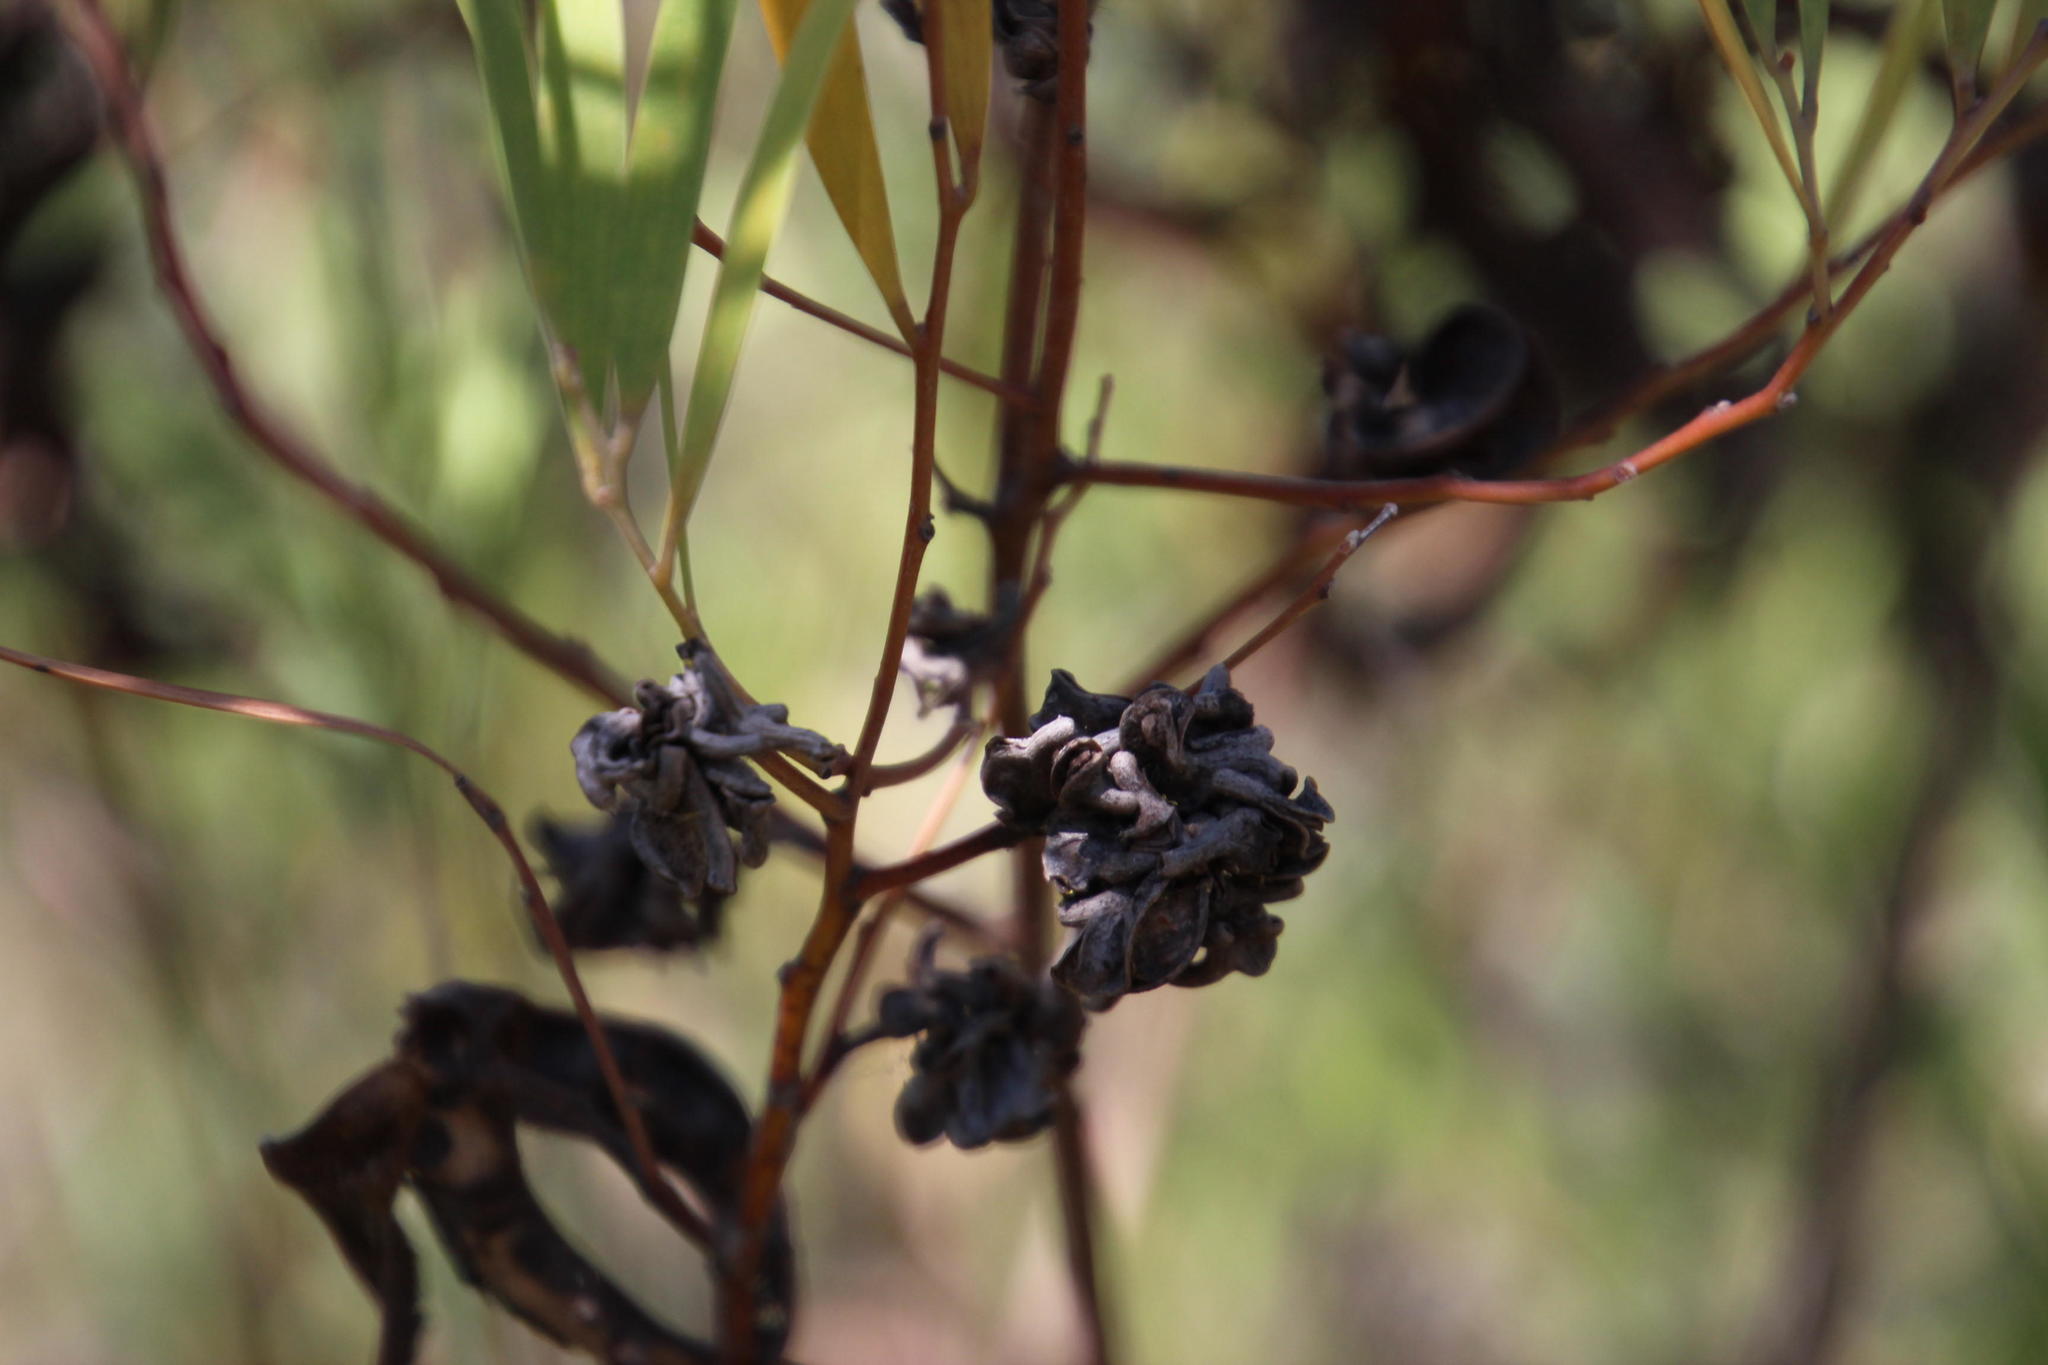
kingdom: Plantae
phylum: Tracheophyta
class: Magnoliopsida
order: Fabales
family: Fabaceae
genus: Acacia
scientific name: Acacia cyclops
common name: Coastal wattle
